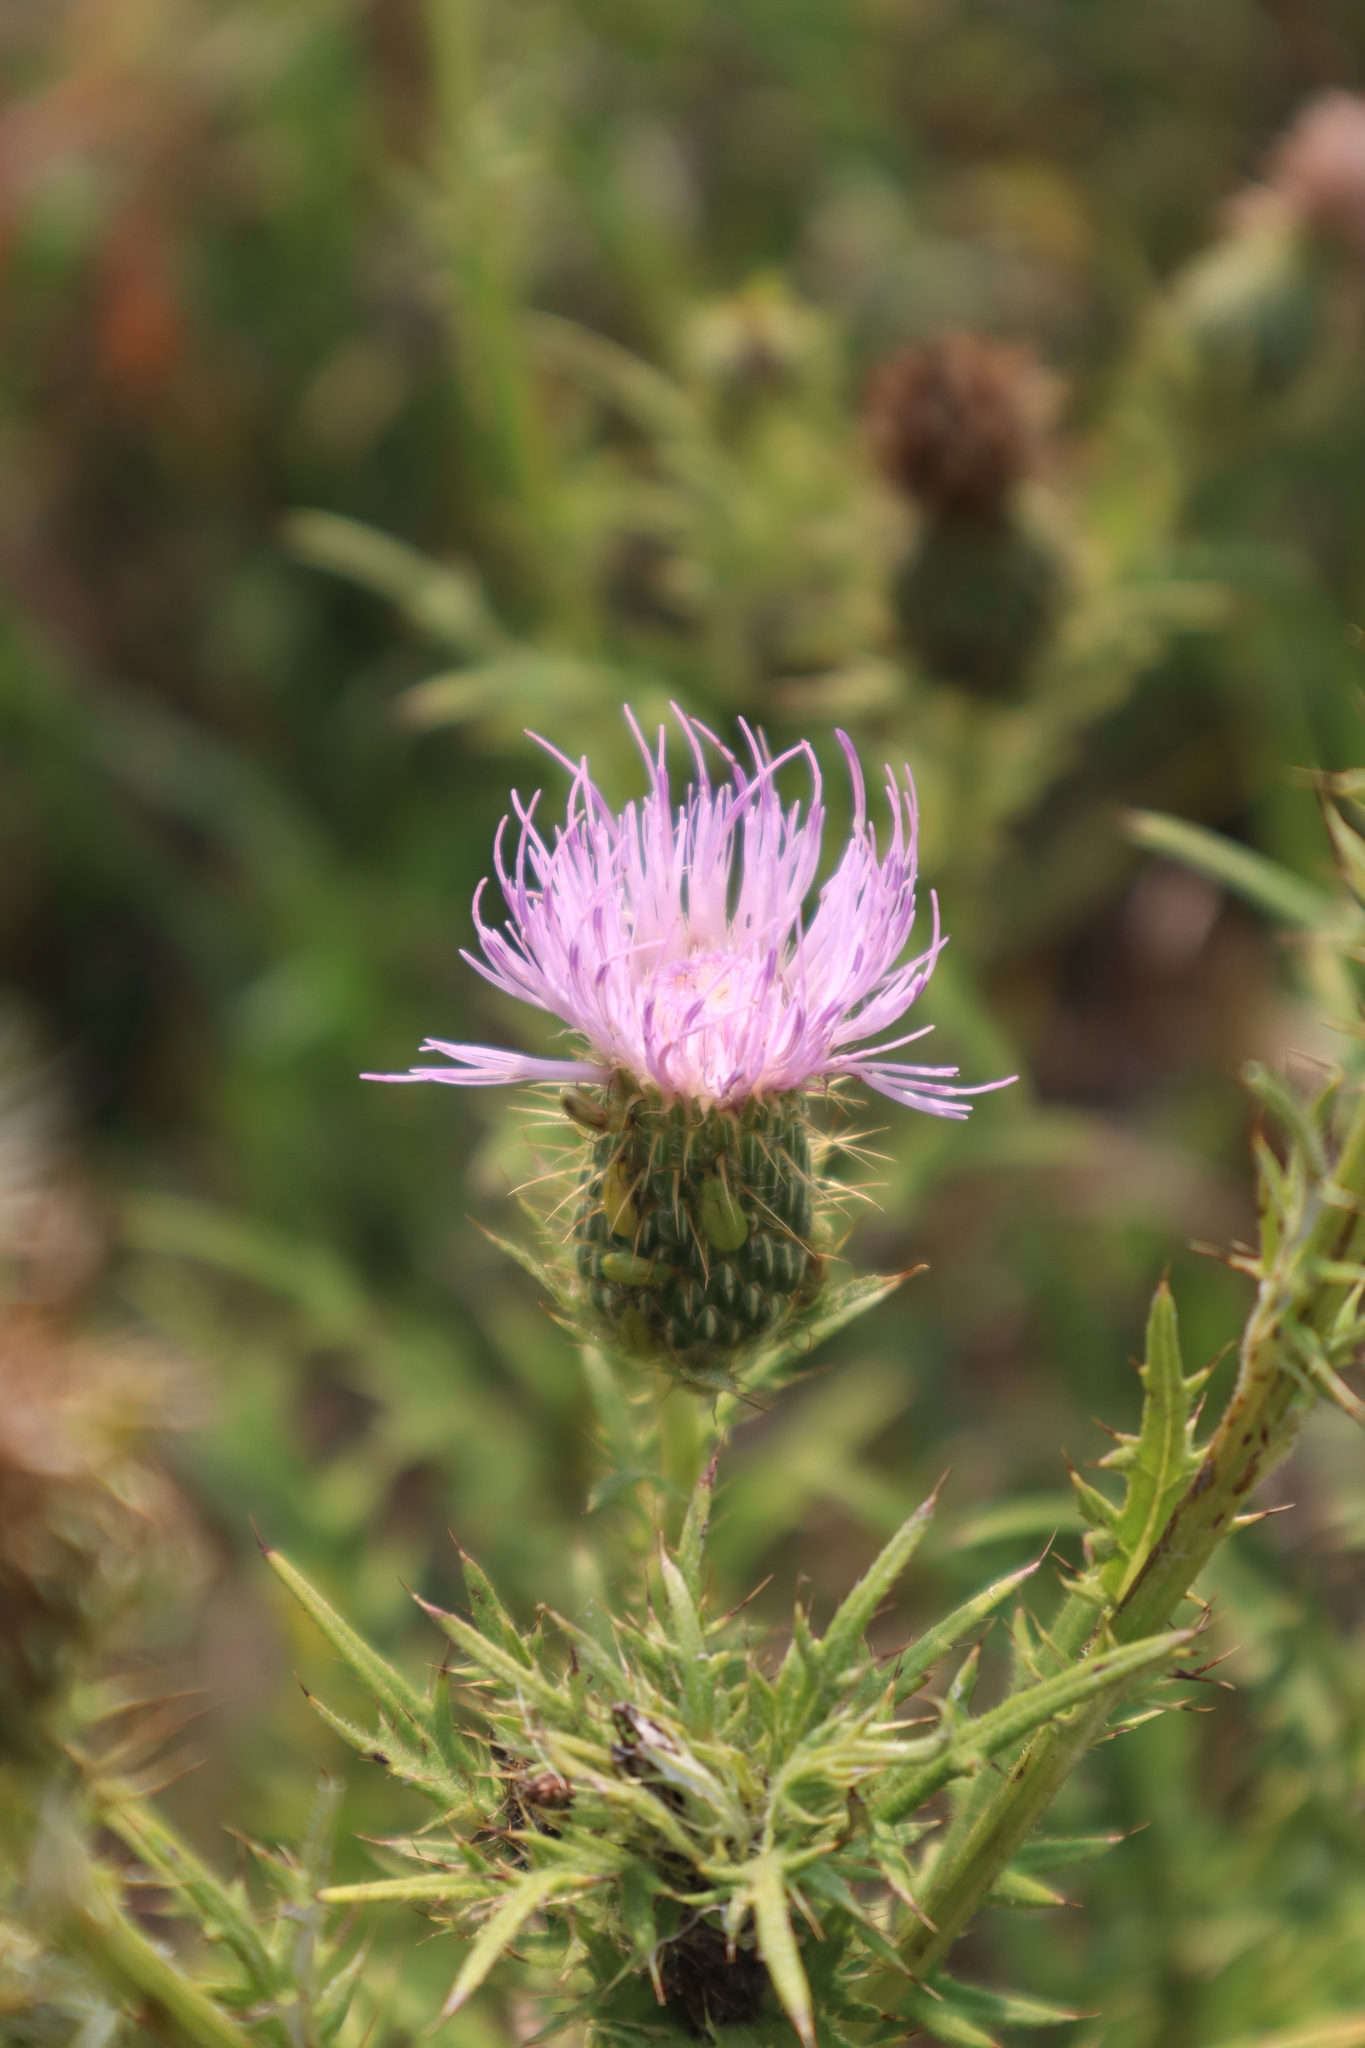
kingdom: Plantae
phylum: Tracheophyta
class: Magnoliopsida
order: Asterales
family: Asteraceae
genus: Cirsium
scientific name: Cirsium discolor
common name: Field thistle
